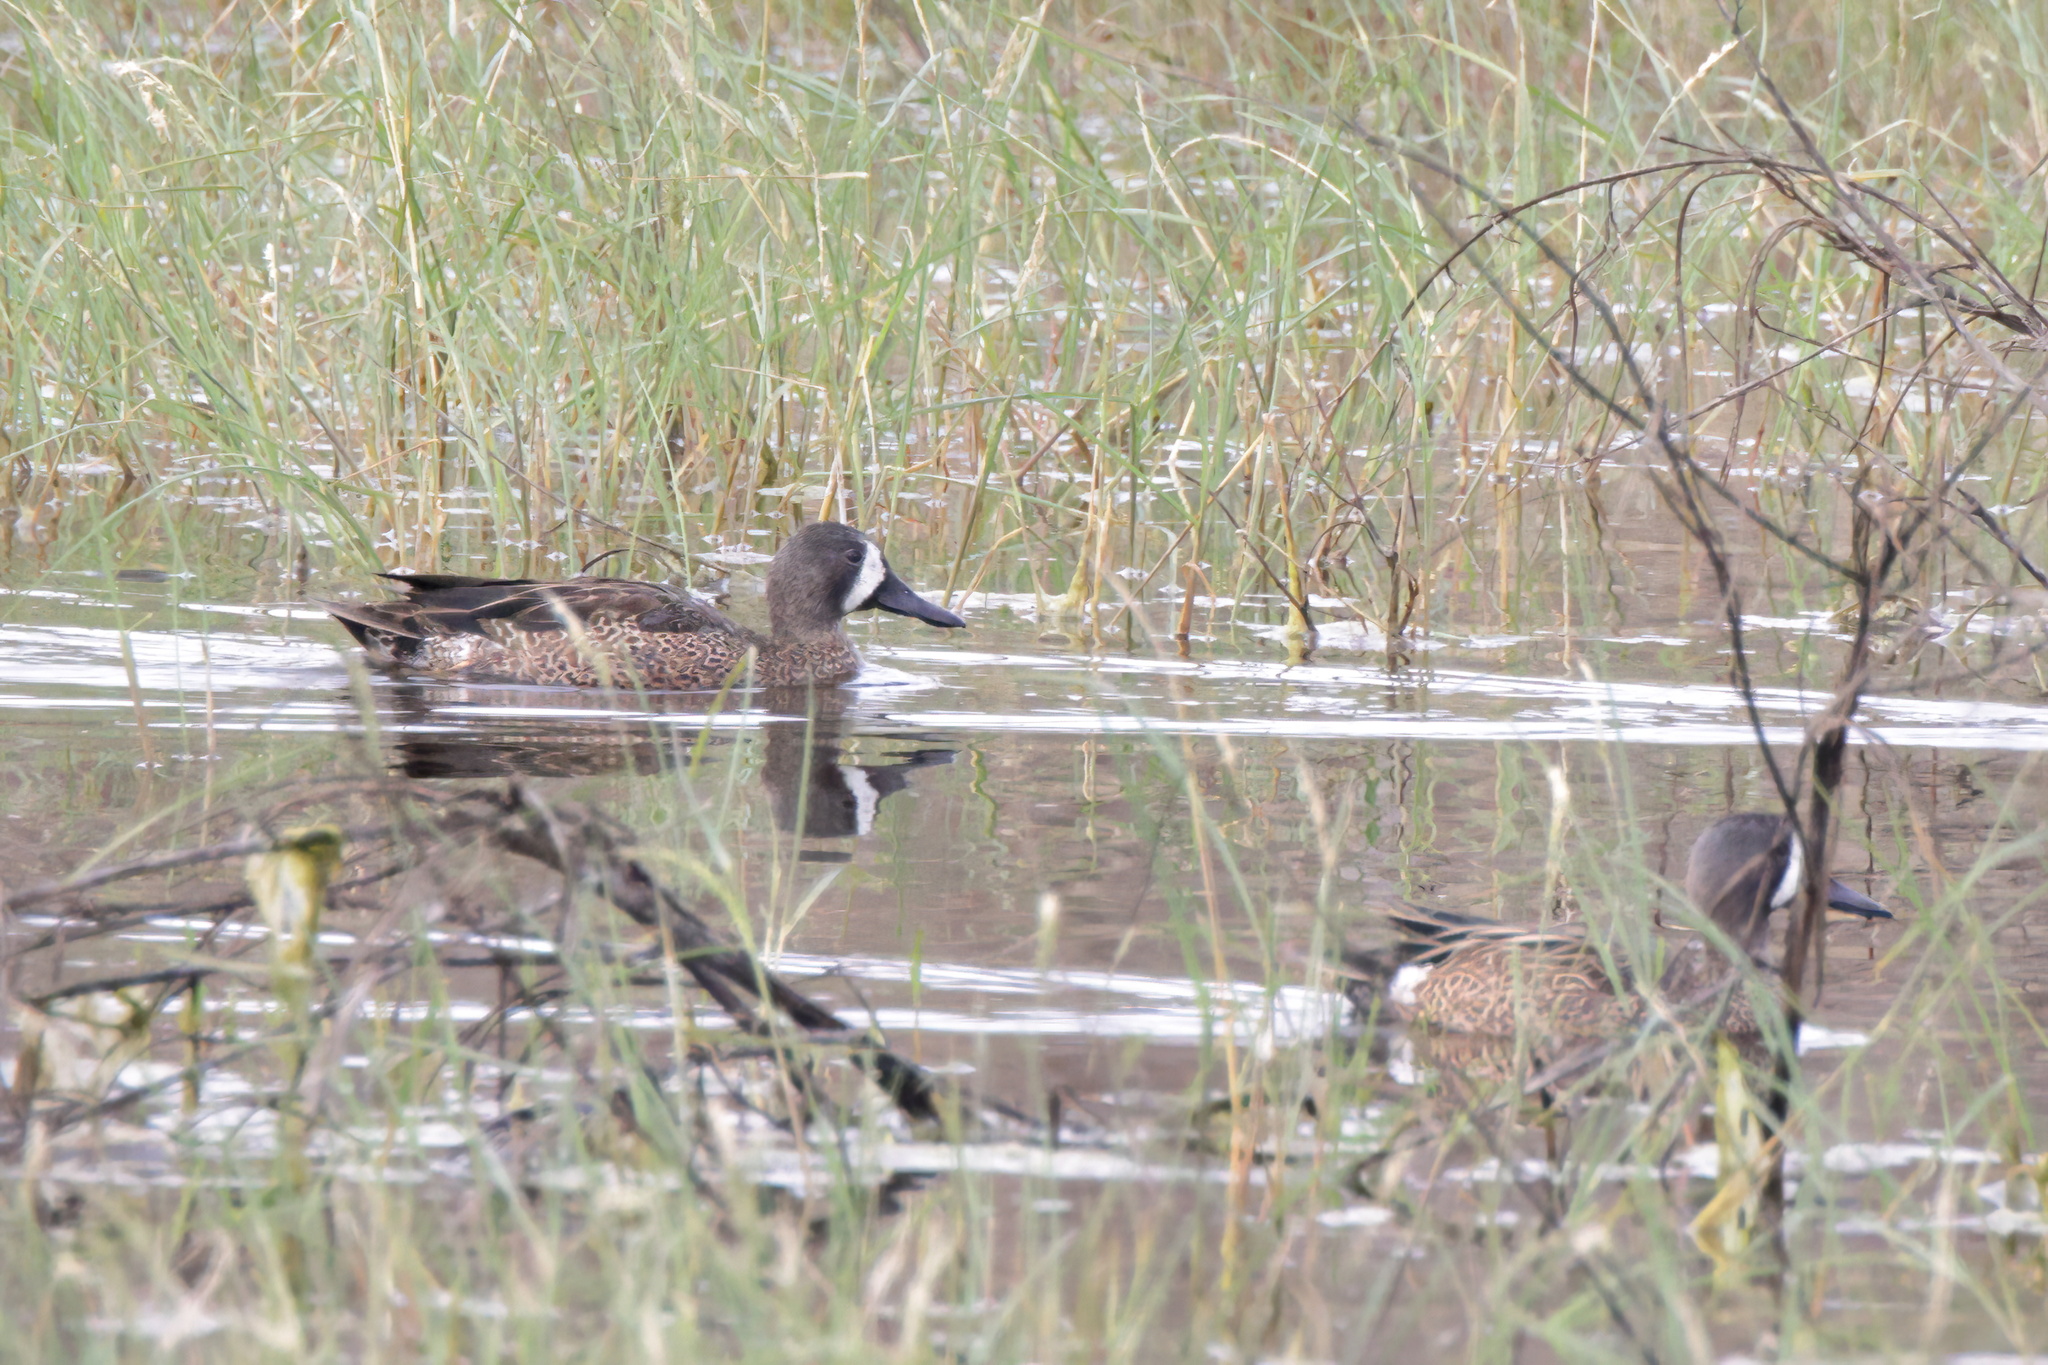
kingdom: Animalia
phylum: Chordata
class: Aves
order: Anseriformes
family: Anatidae
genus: Spatula
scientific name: Spatula discors
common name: Blue-winged teal
